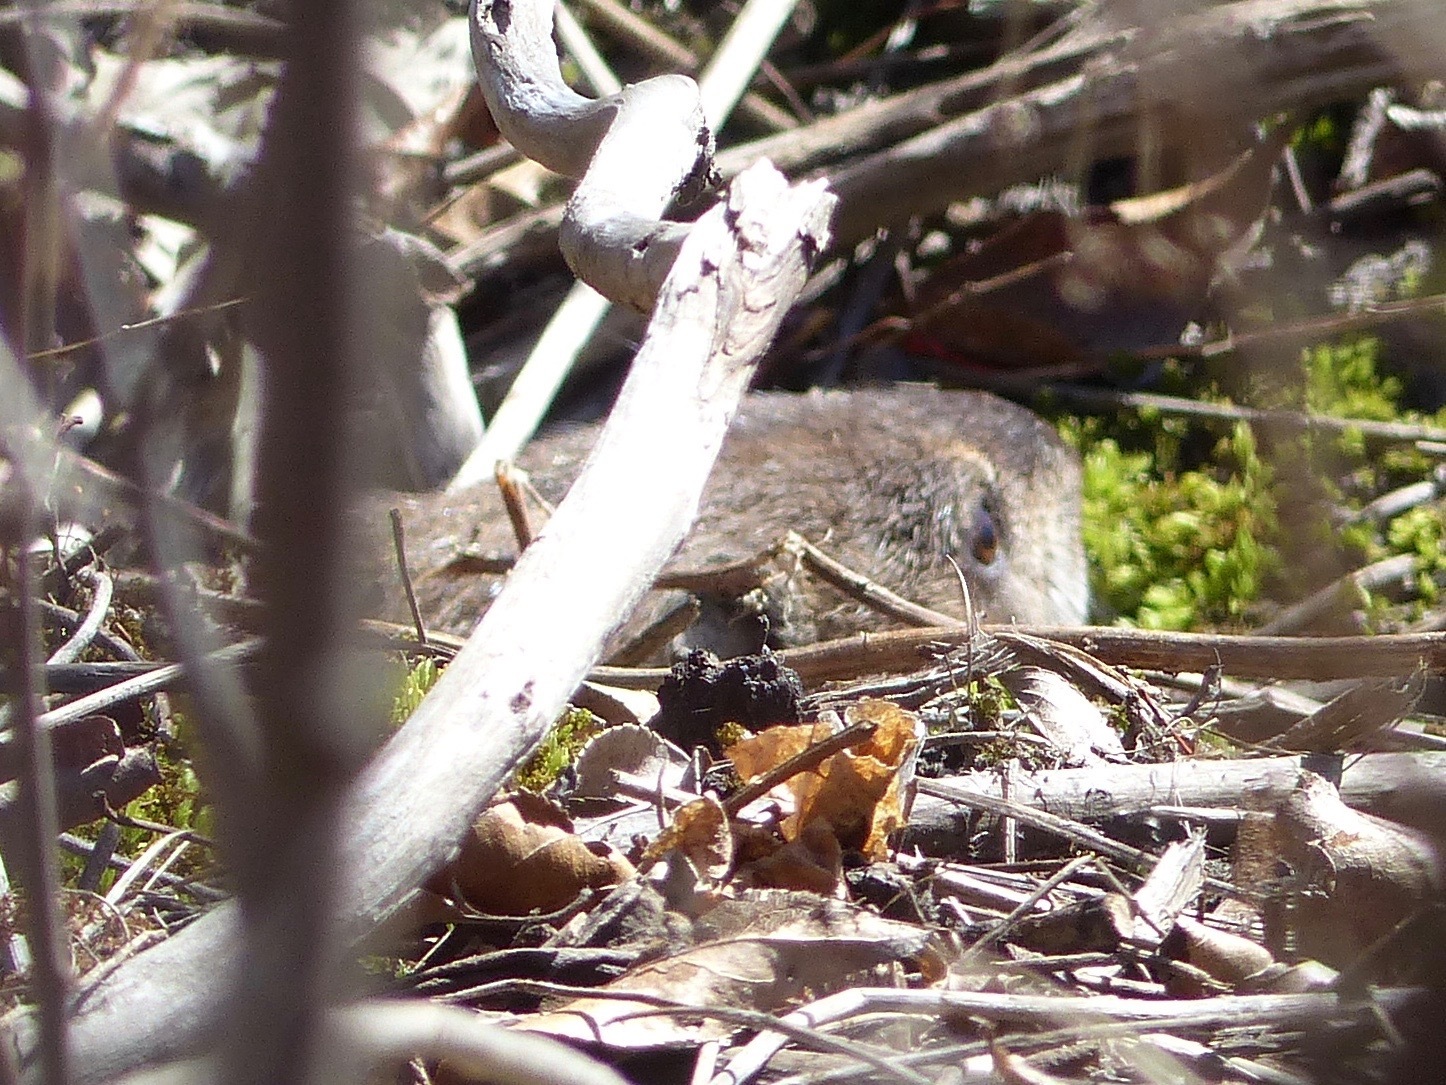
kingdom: Animalia
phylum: Chordata
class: Mammalia
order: Rodentia
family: Sciuridae
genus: Marmota
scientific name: Marmota monax
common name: Groundhog
